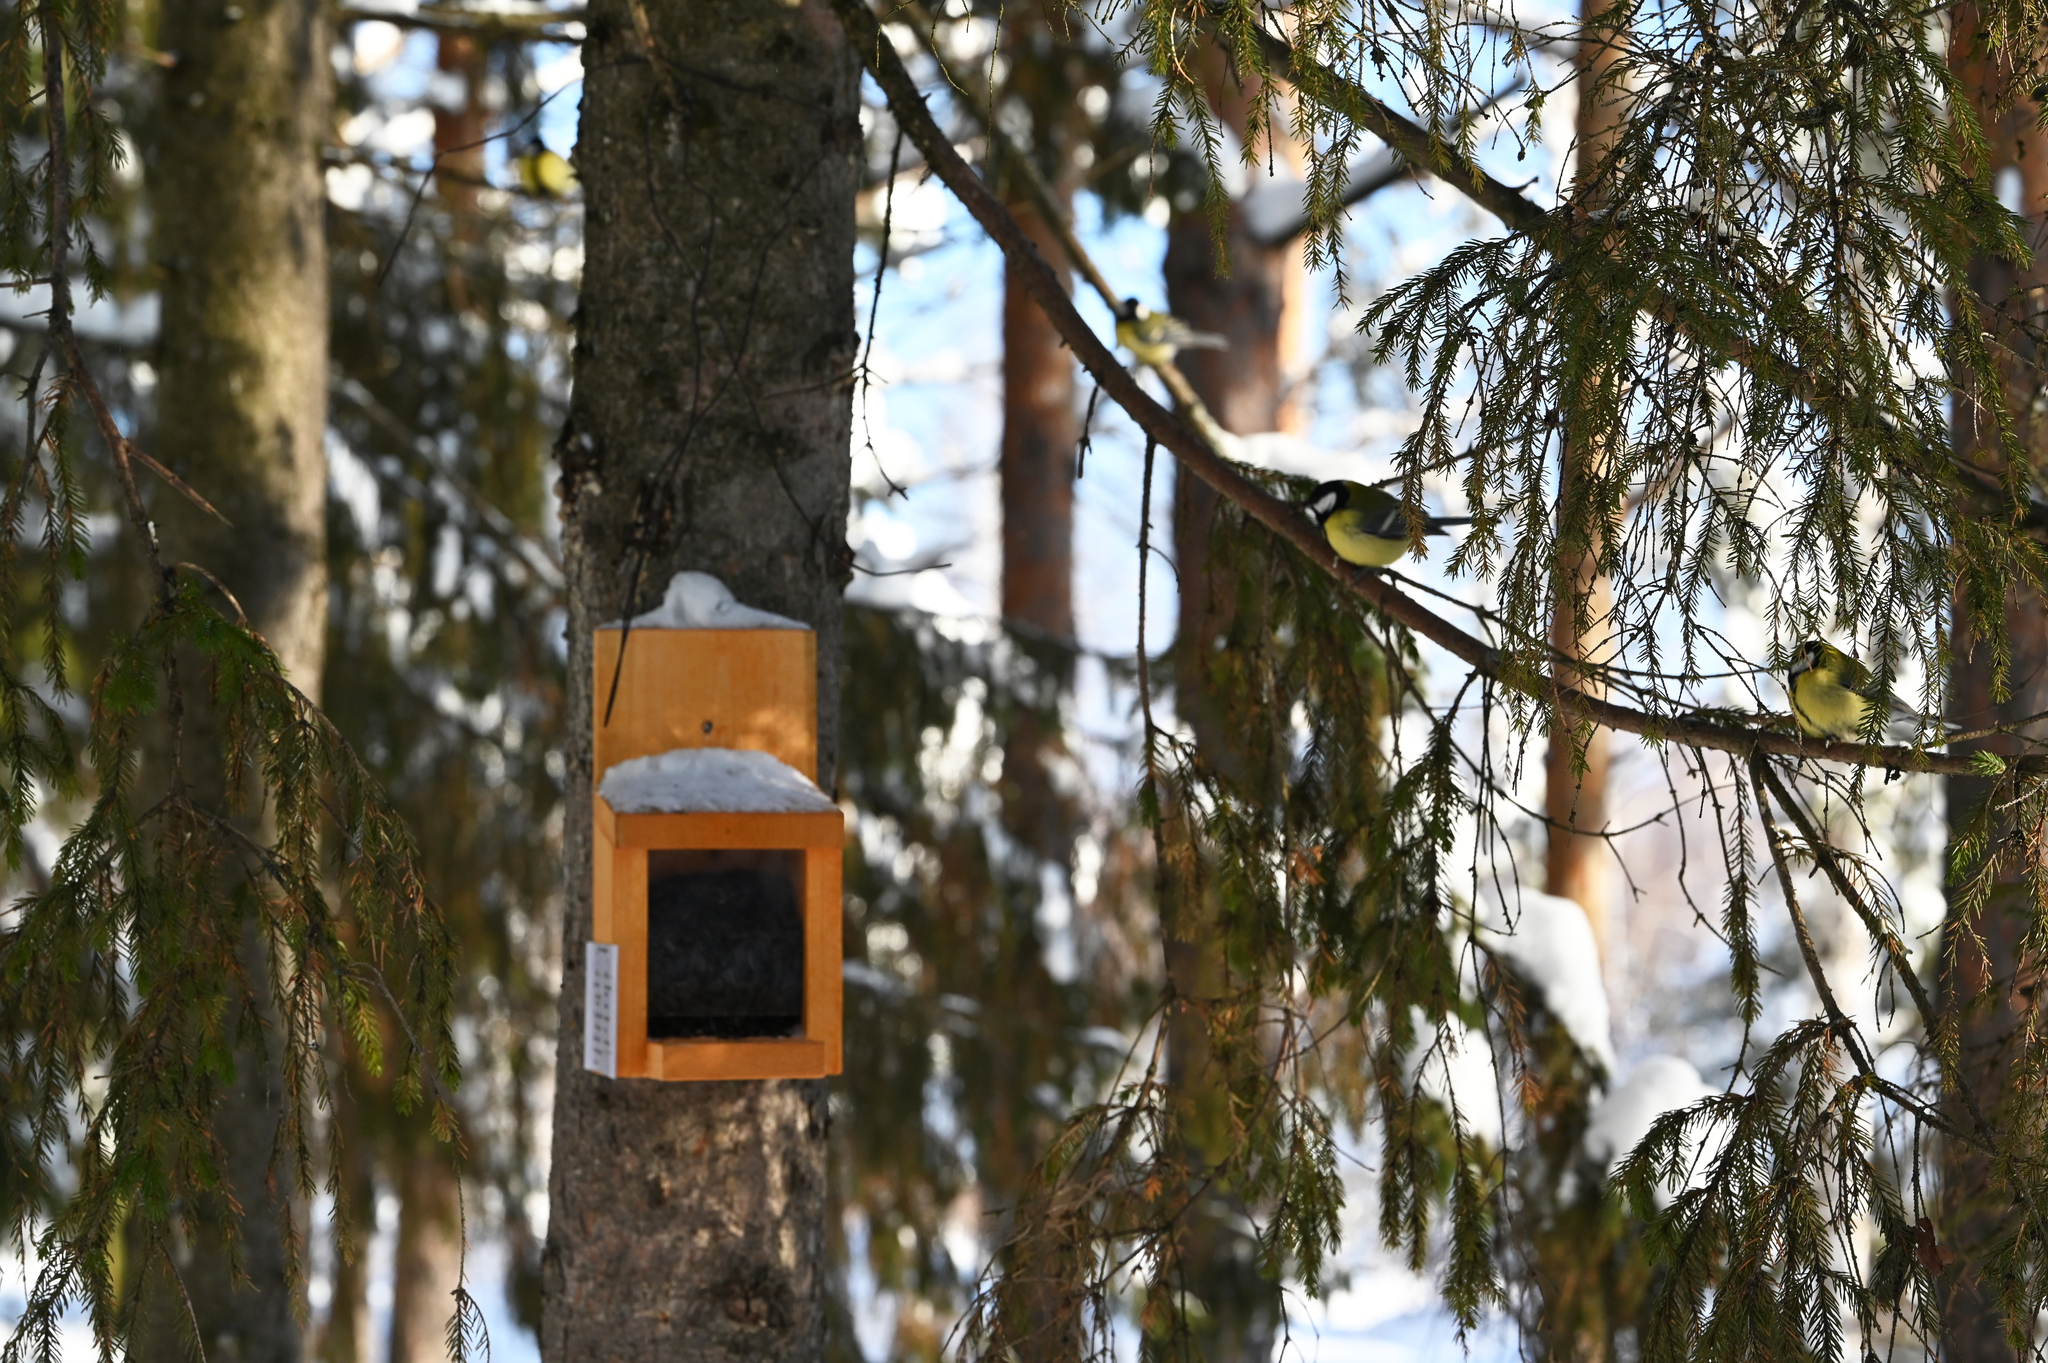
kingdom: Animalia
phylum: Chordata
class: Aves
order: Passeriformes
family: Paridae
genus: Parus
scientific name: Parus major
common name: Great tit
